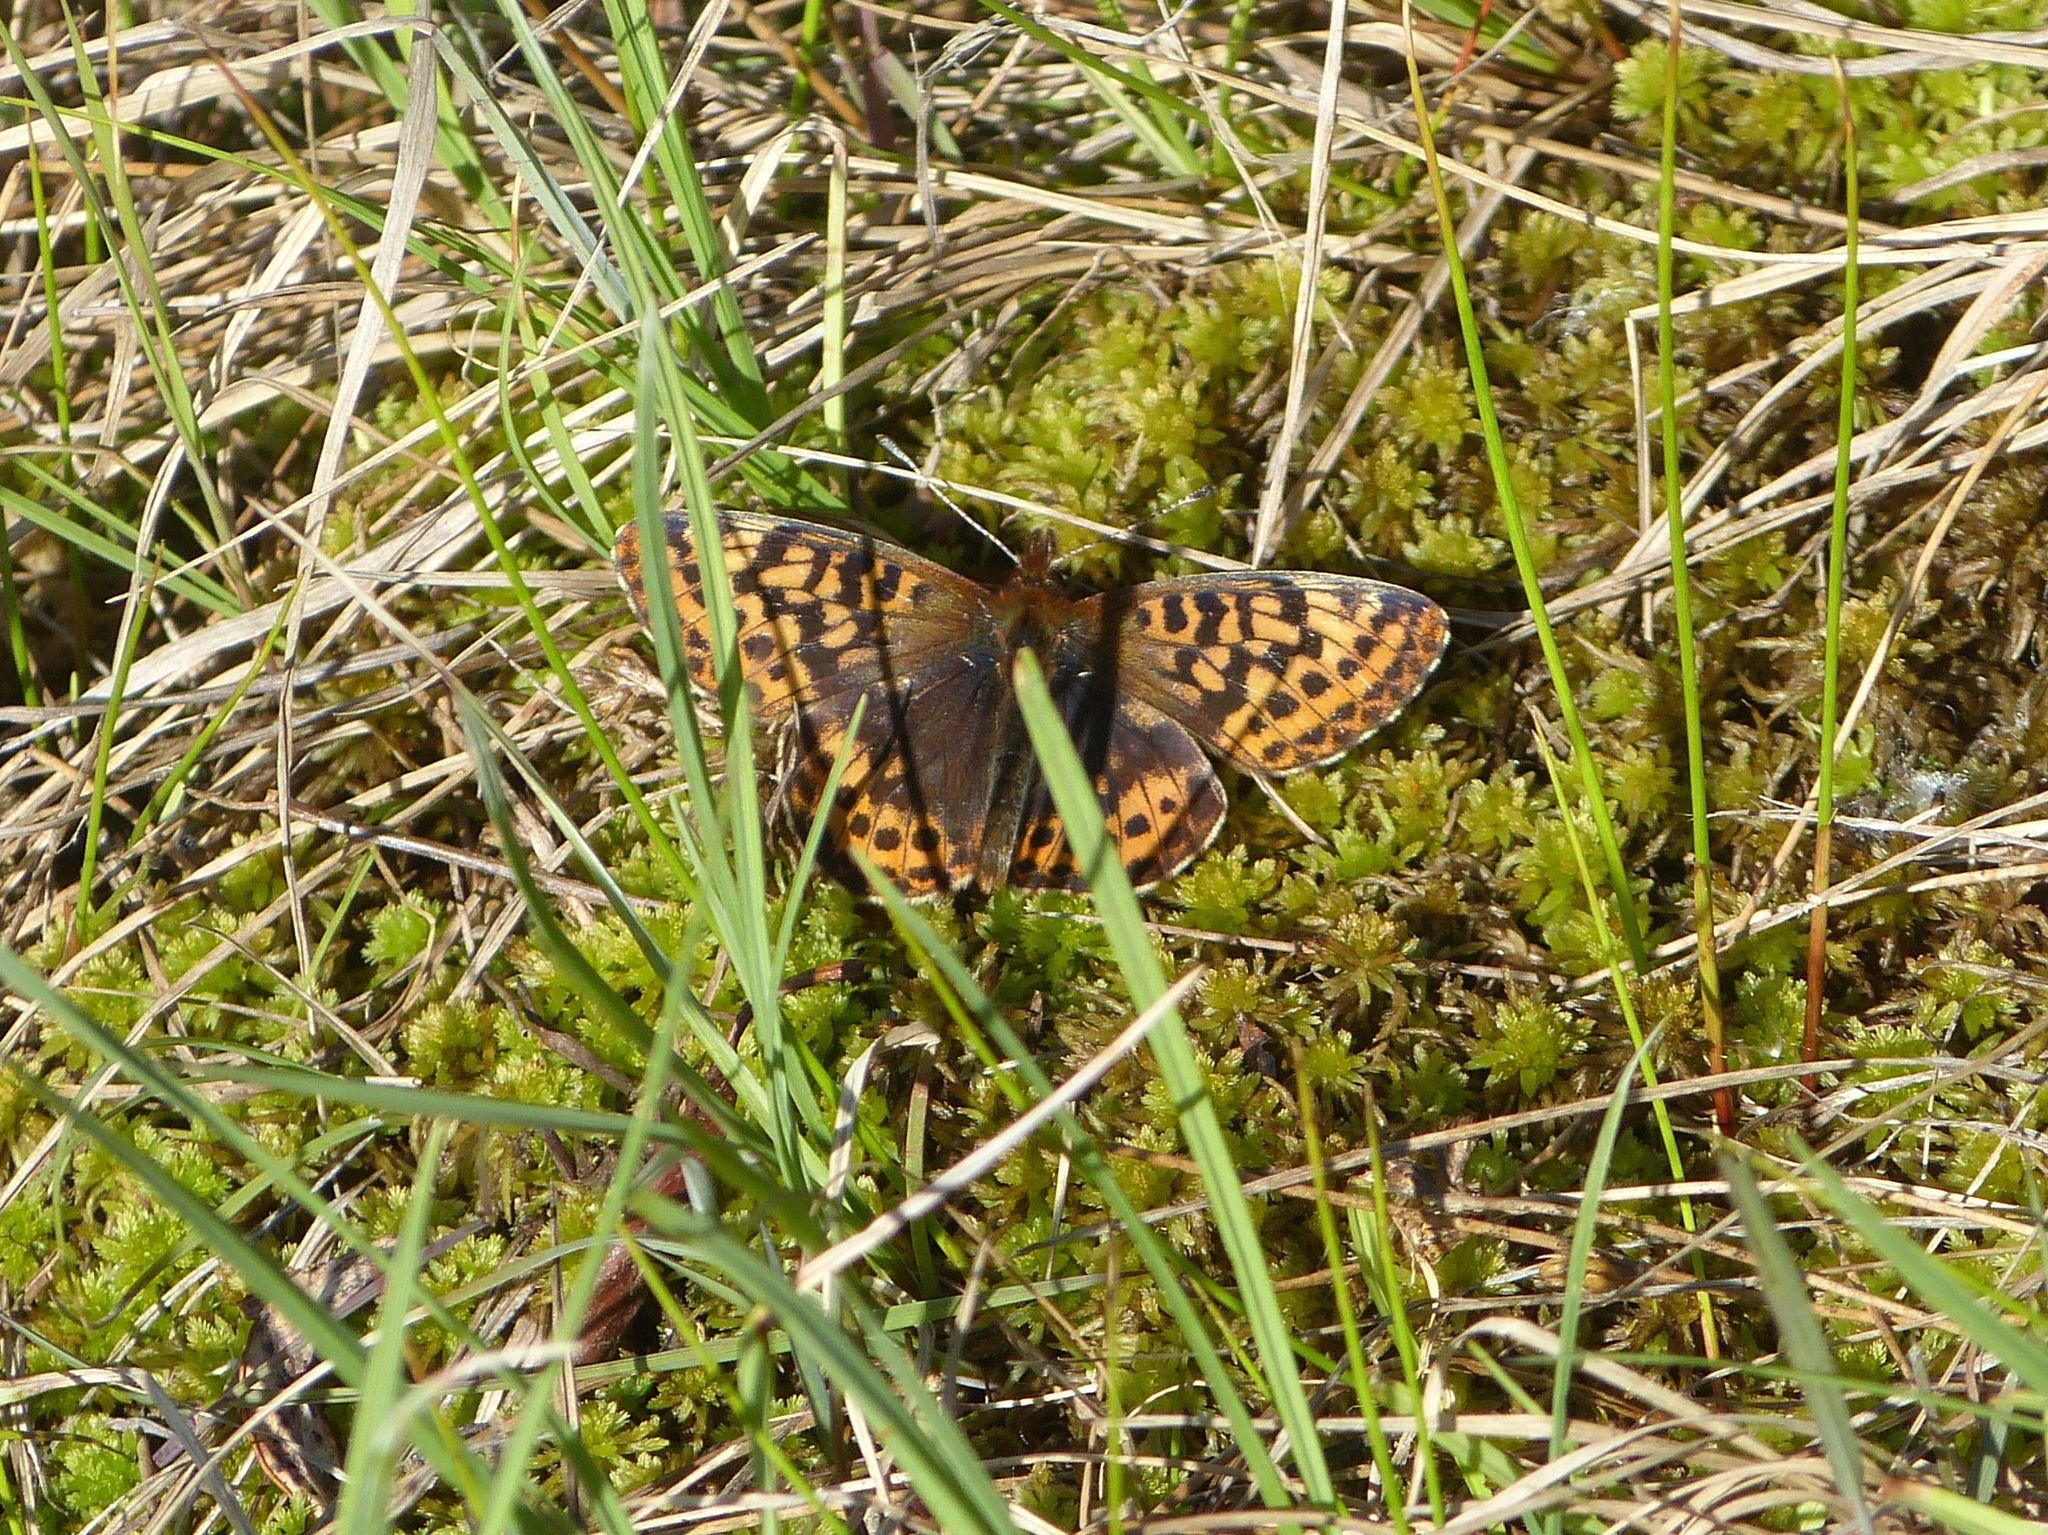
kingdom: Animalia
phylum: Arthropoda
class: Insecta
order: Lepidoptera
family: Nymphalidae
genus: Boloria
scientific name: Boloria frigga
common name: Frigga's fritillary
